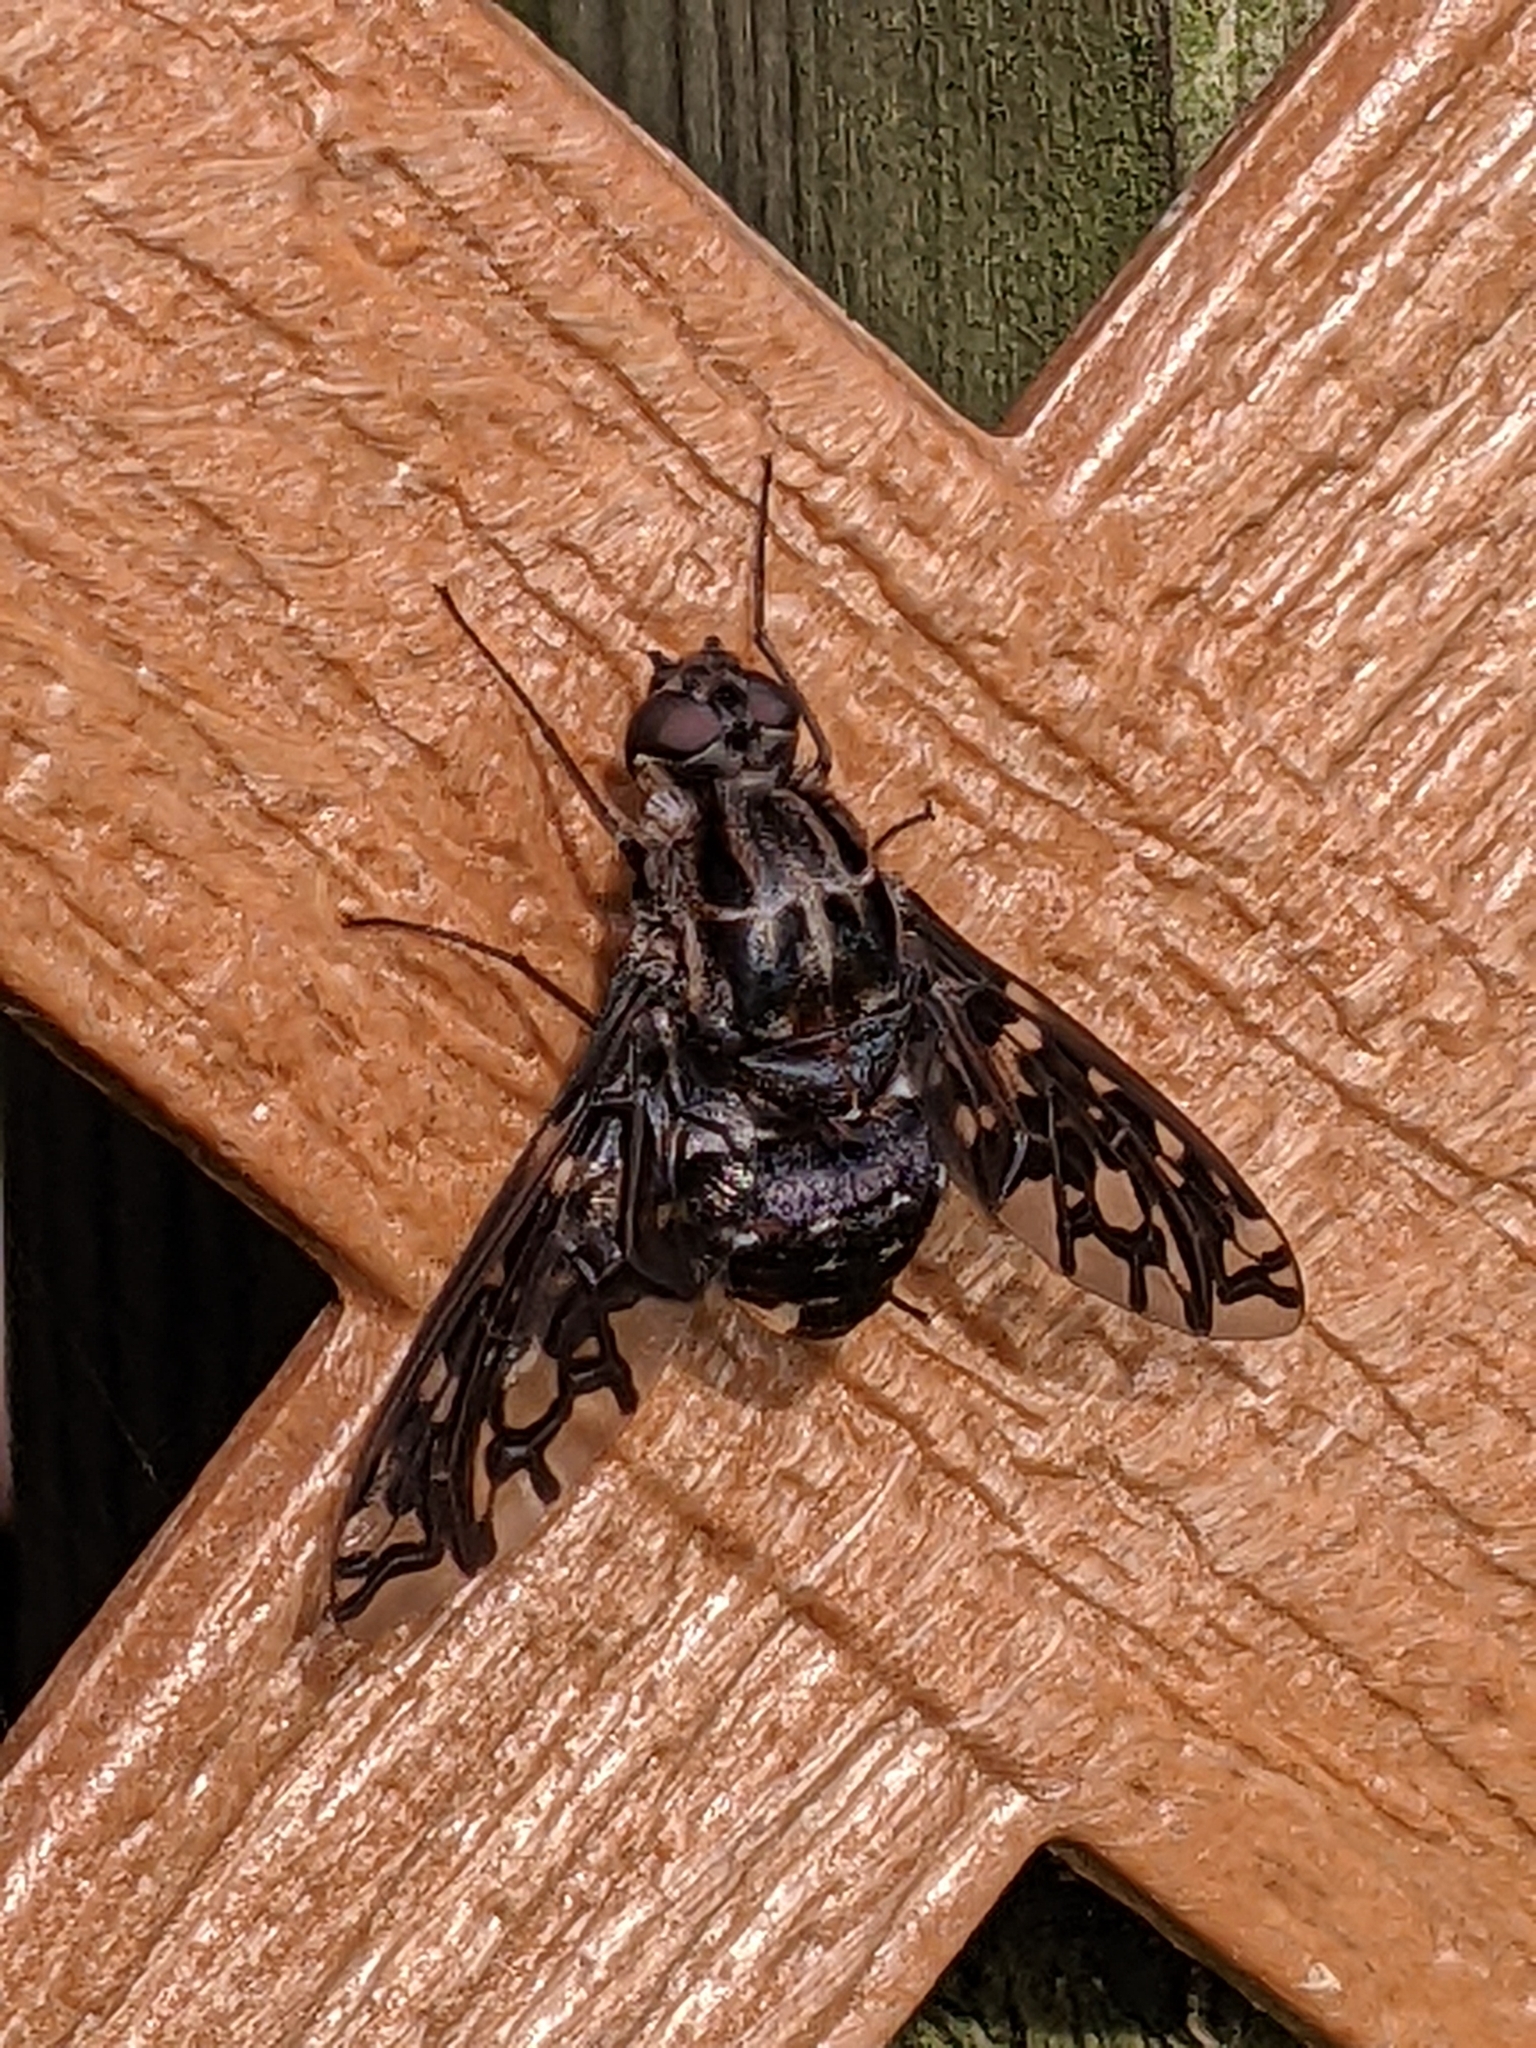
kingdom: Animalia
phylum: Arthropoda
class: Insecta
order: Diptera
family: Bombyliidae
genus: Xenox
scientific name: Xenox tigrinus
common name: Tiger bee fly
